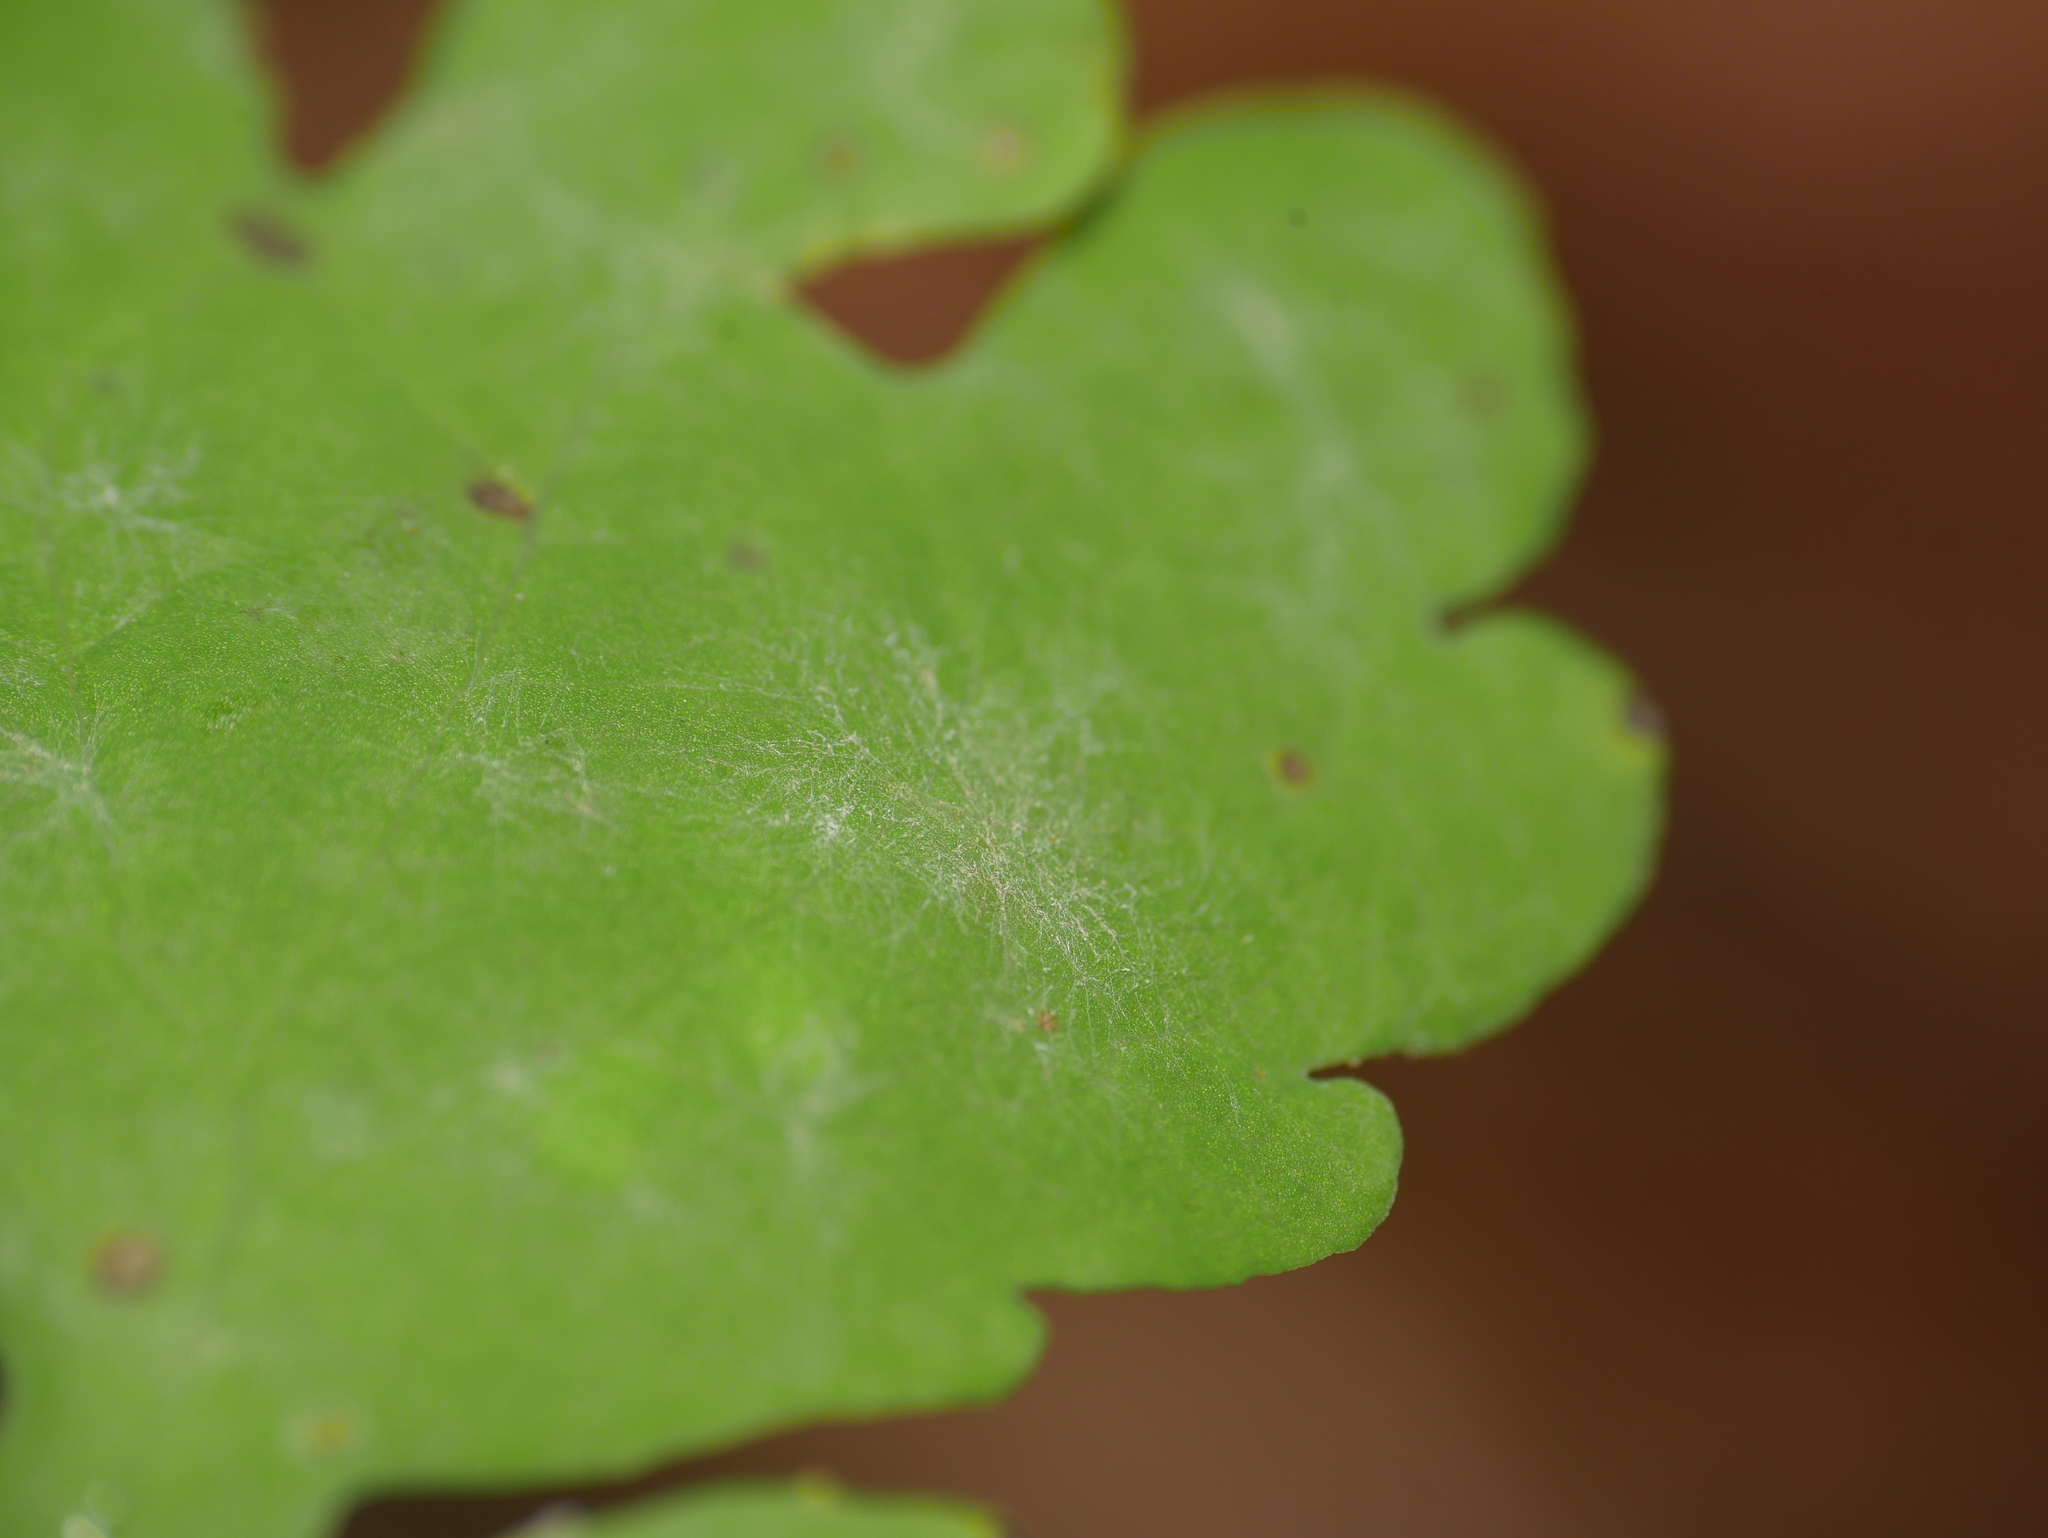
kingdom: Fungi
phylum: Ascomycota
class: Leotiomycetes
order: Helotiales
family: Erysiphaceae
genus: Erysiphe
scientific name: Erysiphe macleayae
